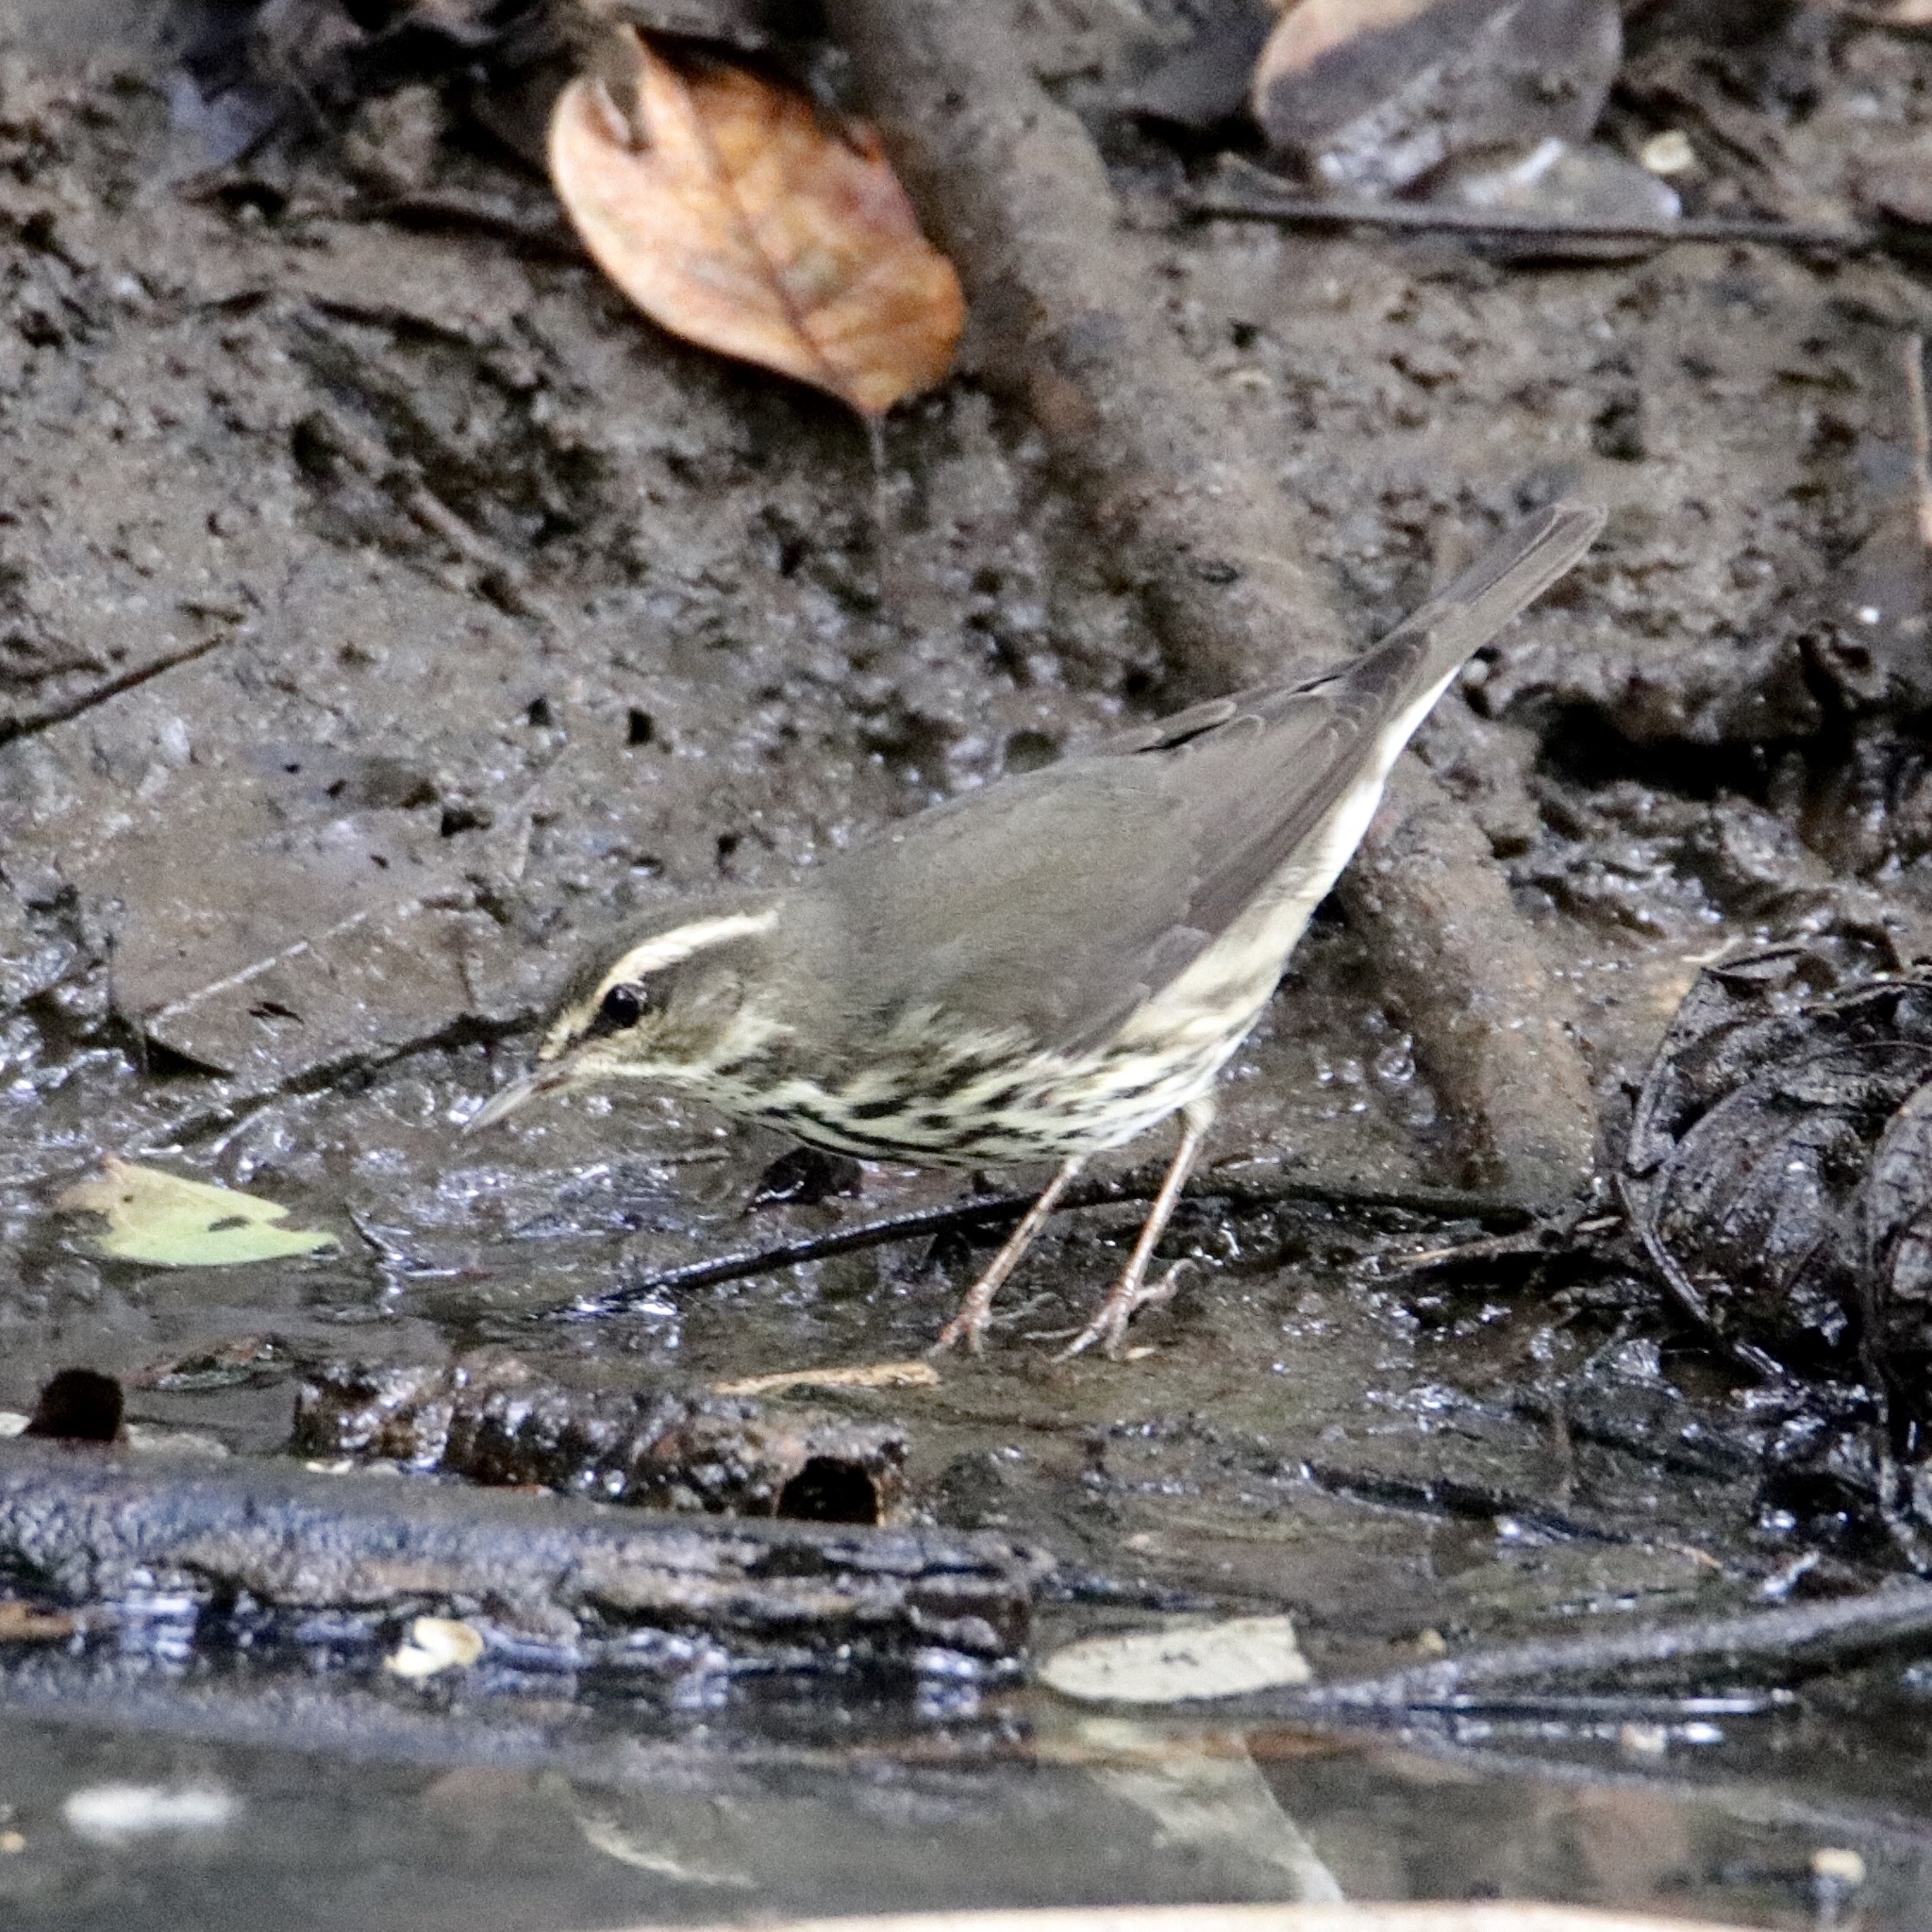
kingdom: Animalia
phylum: Chordata
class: Aves
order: Passeriformes
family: Parulidae
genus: Parkesia
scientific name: Parkesia noveboracensis
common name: Northern waterthrush
